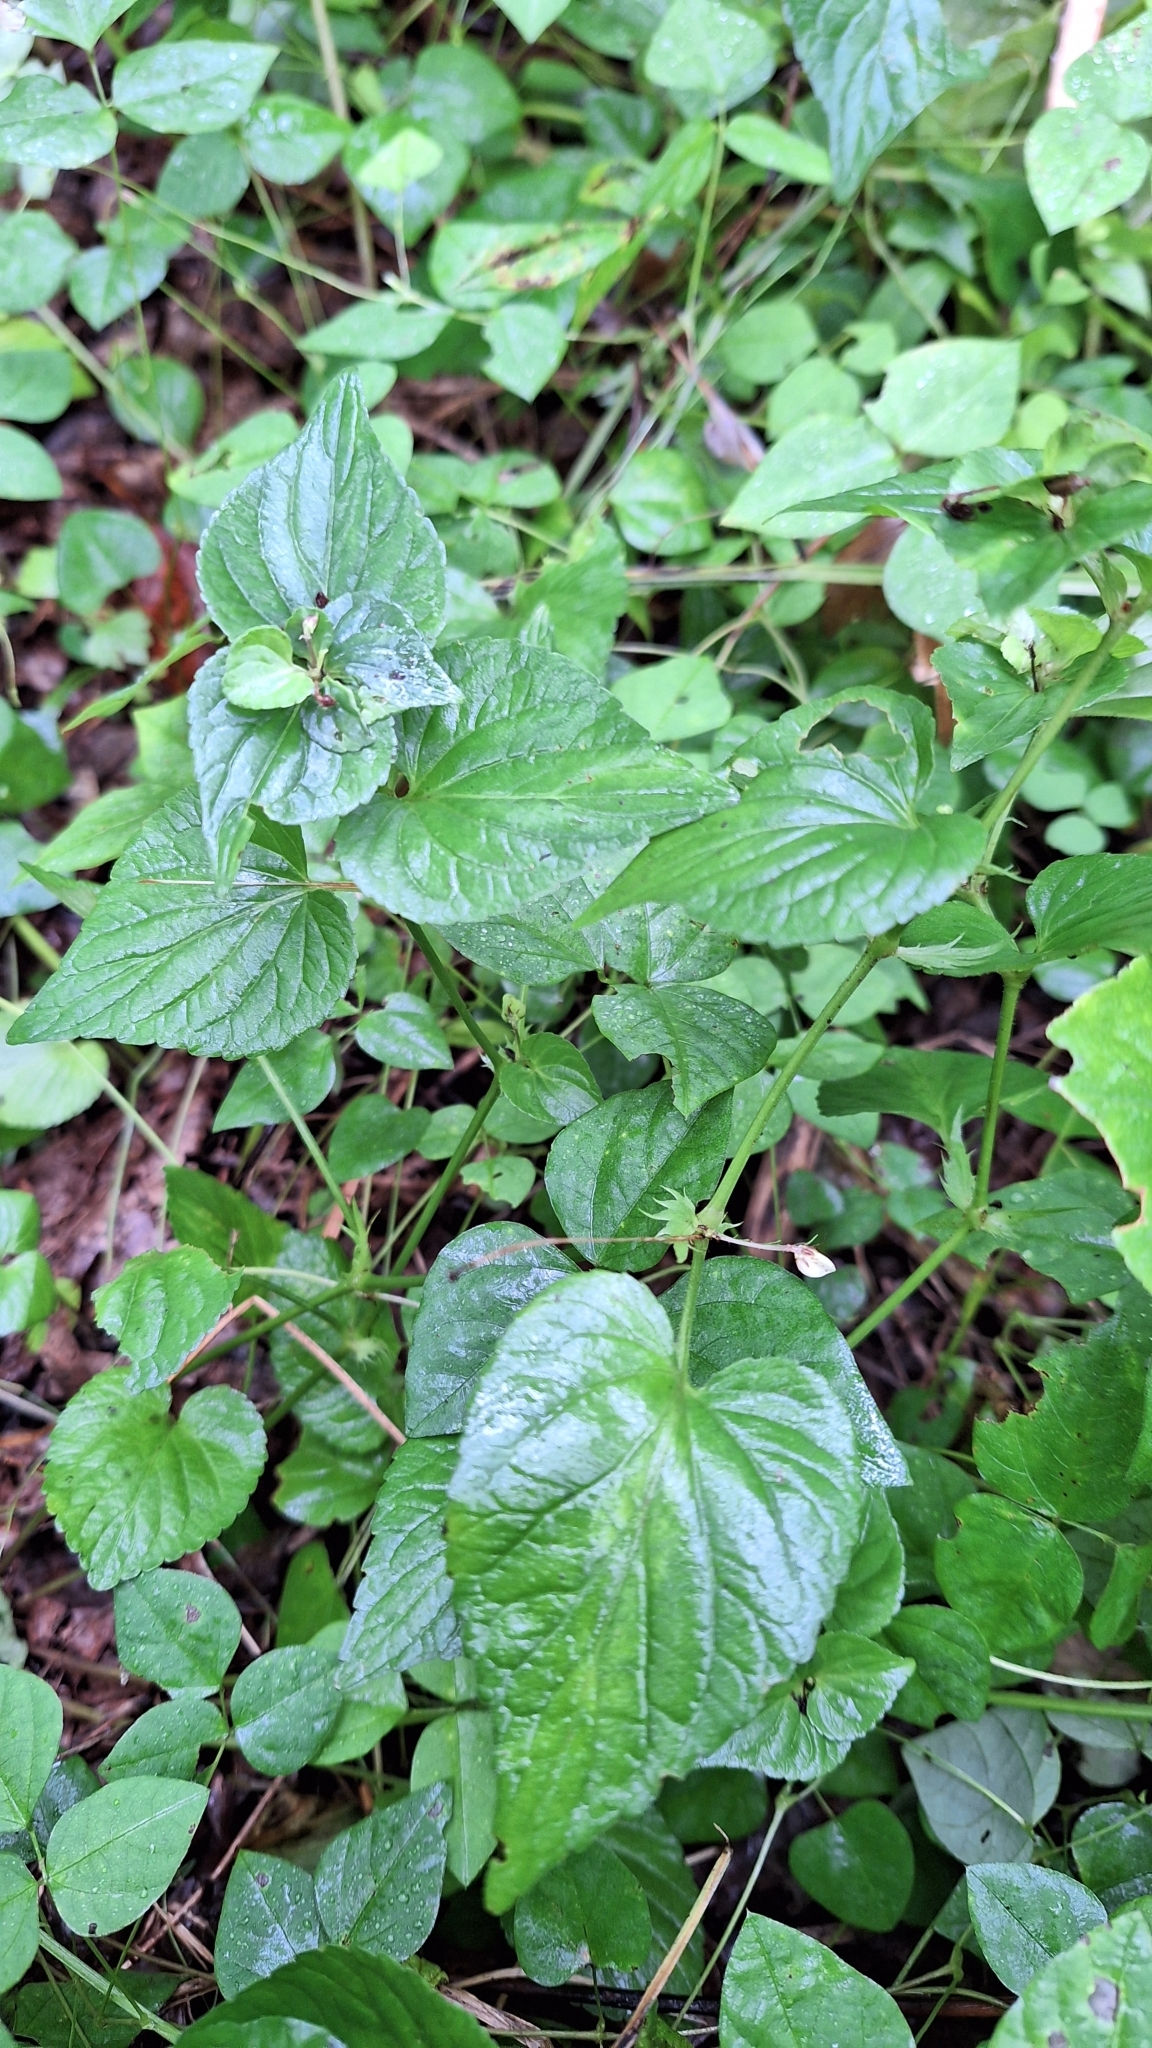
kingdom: Plantae
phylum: Tracheophyta
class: Magnoliopsida
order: Malpighiales
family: Violaceae
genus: Viola
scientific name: Viola acuminata
